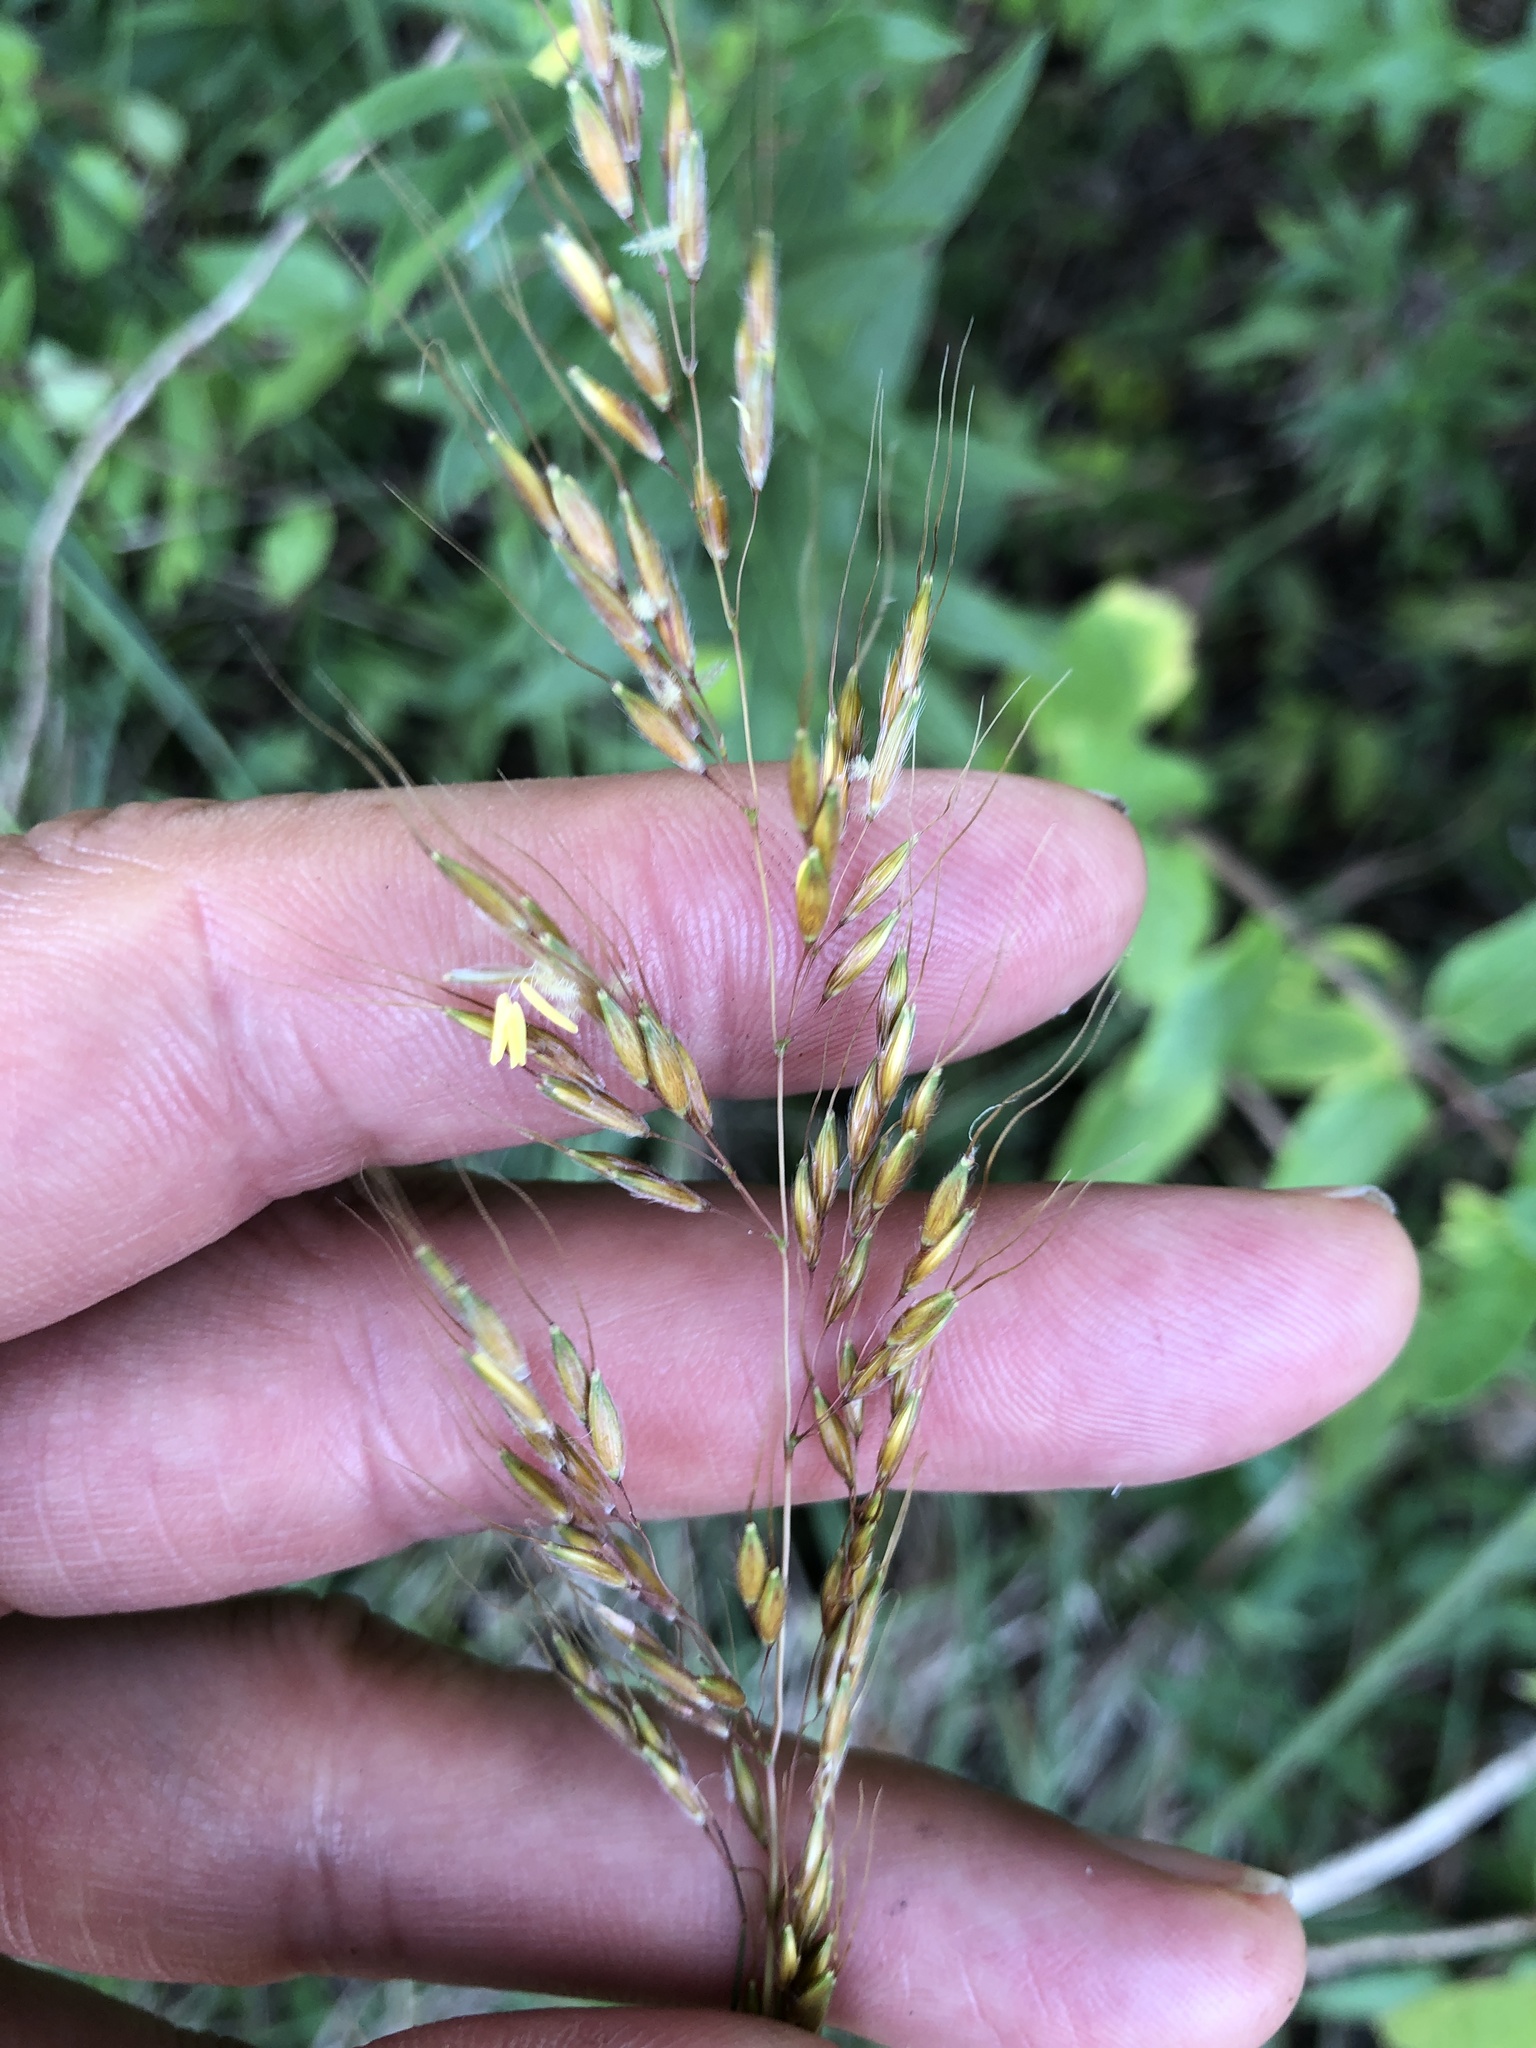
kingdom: Plantae
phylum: Tracheophyta
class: Liliopsida
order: Poales
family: Poaceae
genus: Sorghastrum
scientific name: Sorghastrum nutans
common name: Indian grass
